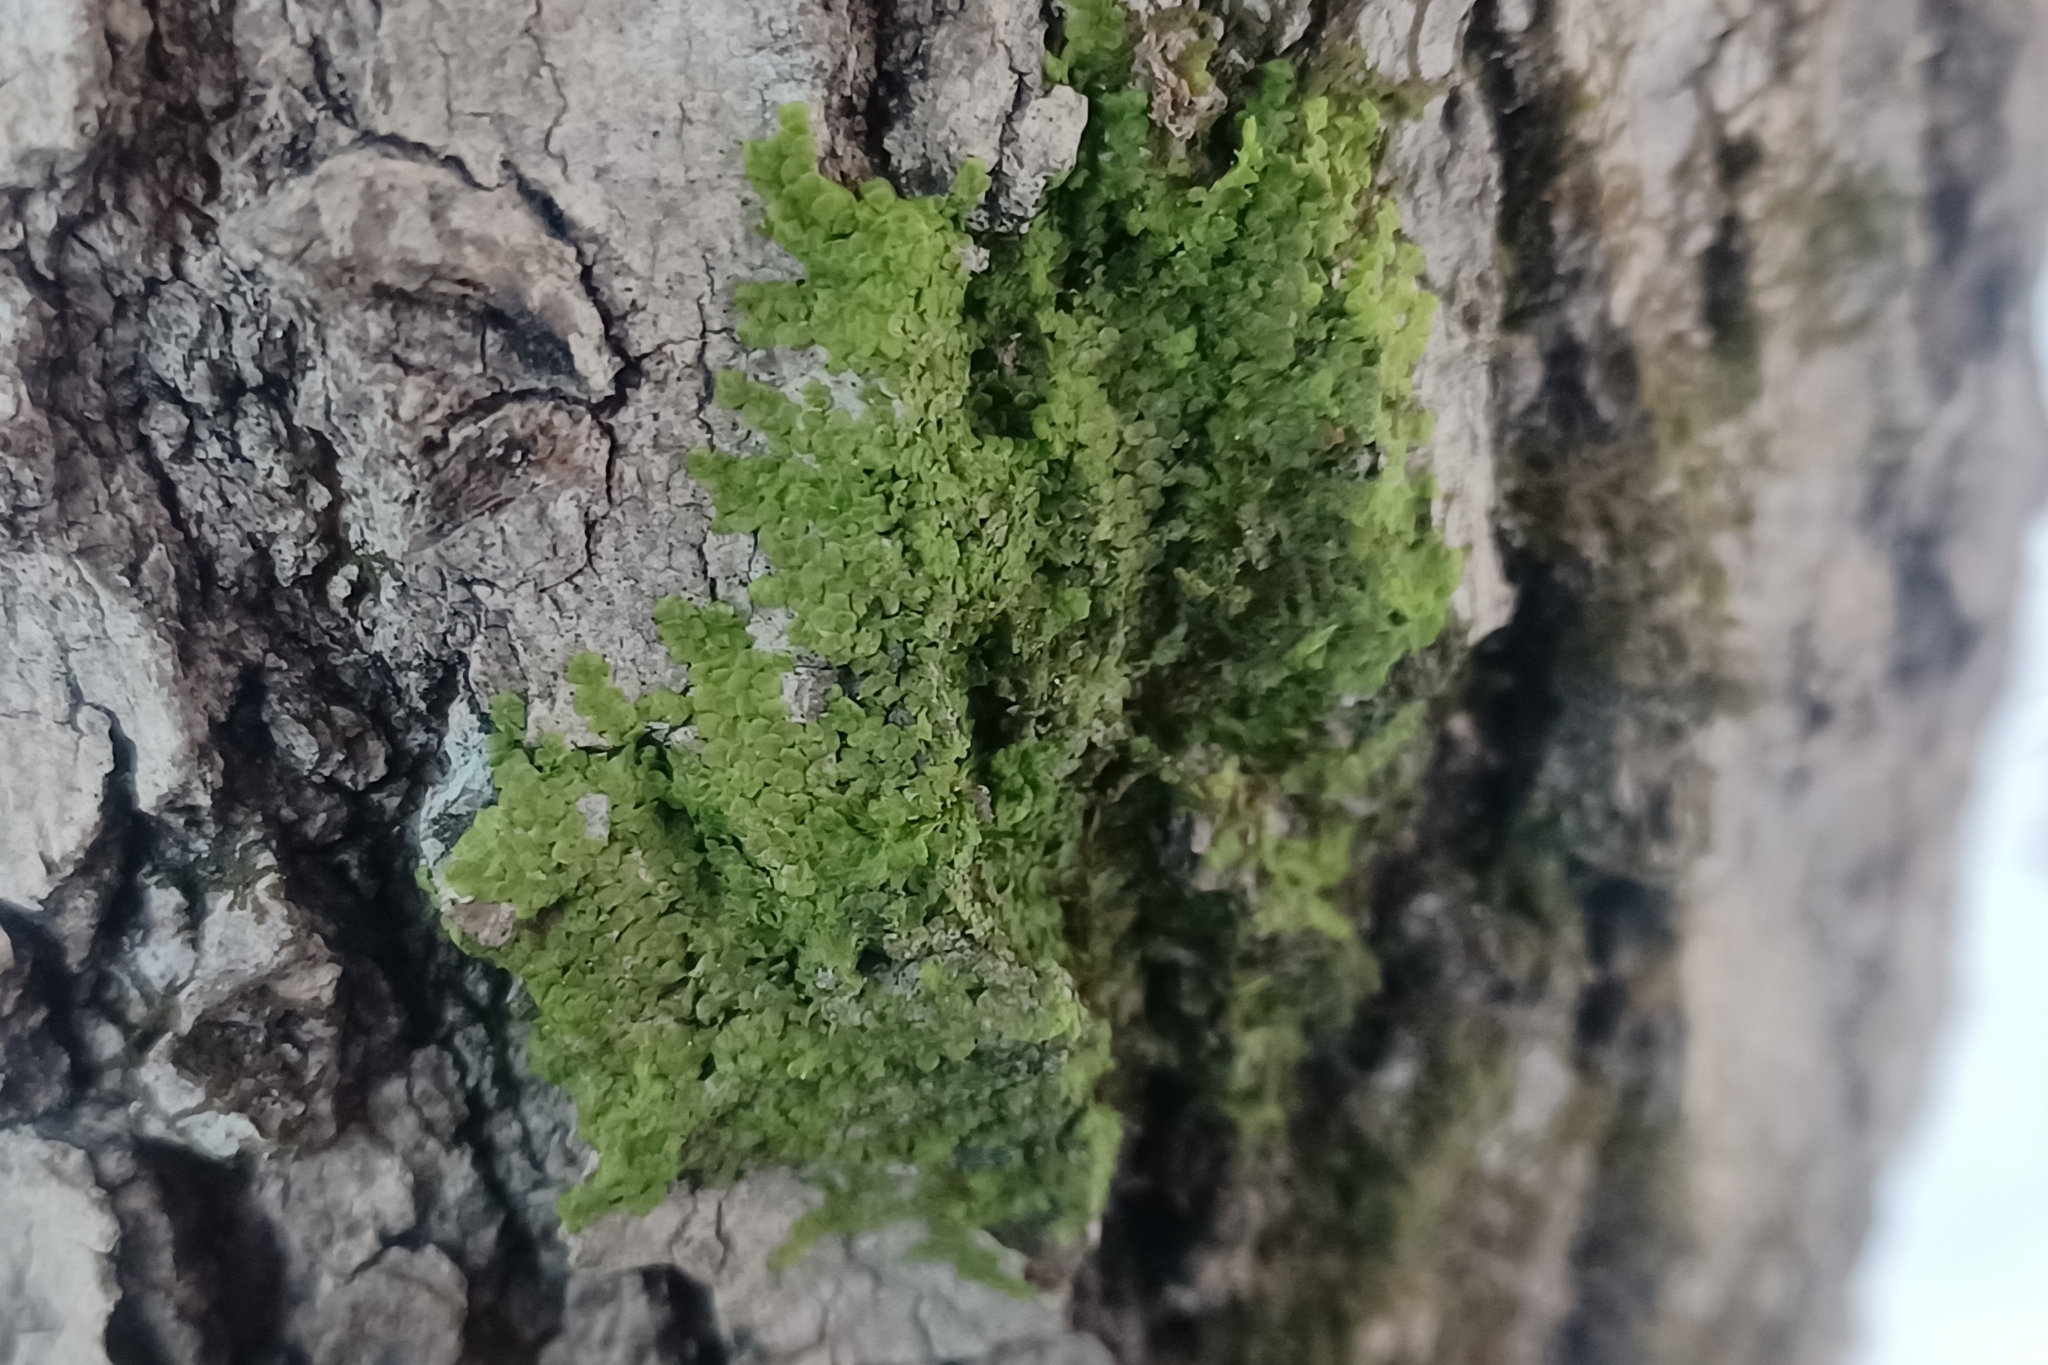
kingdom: Plantae
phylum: Marchantiophyta
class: Jungermanniopsida
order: Porellales
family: Radulaceae
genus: Radula
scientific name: Radula complanata
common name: Flat-leaved scalewort
